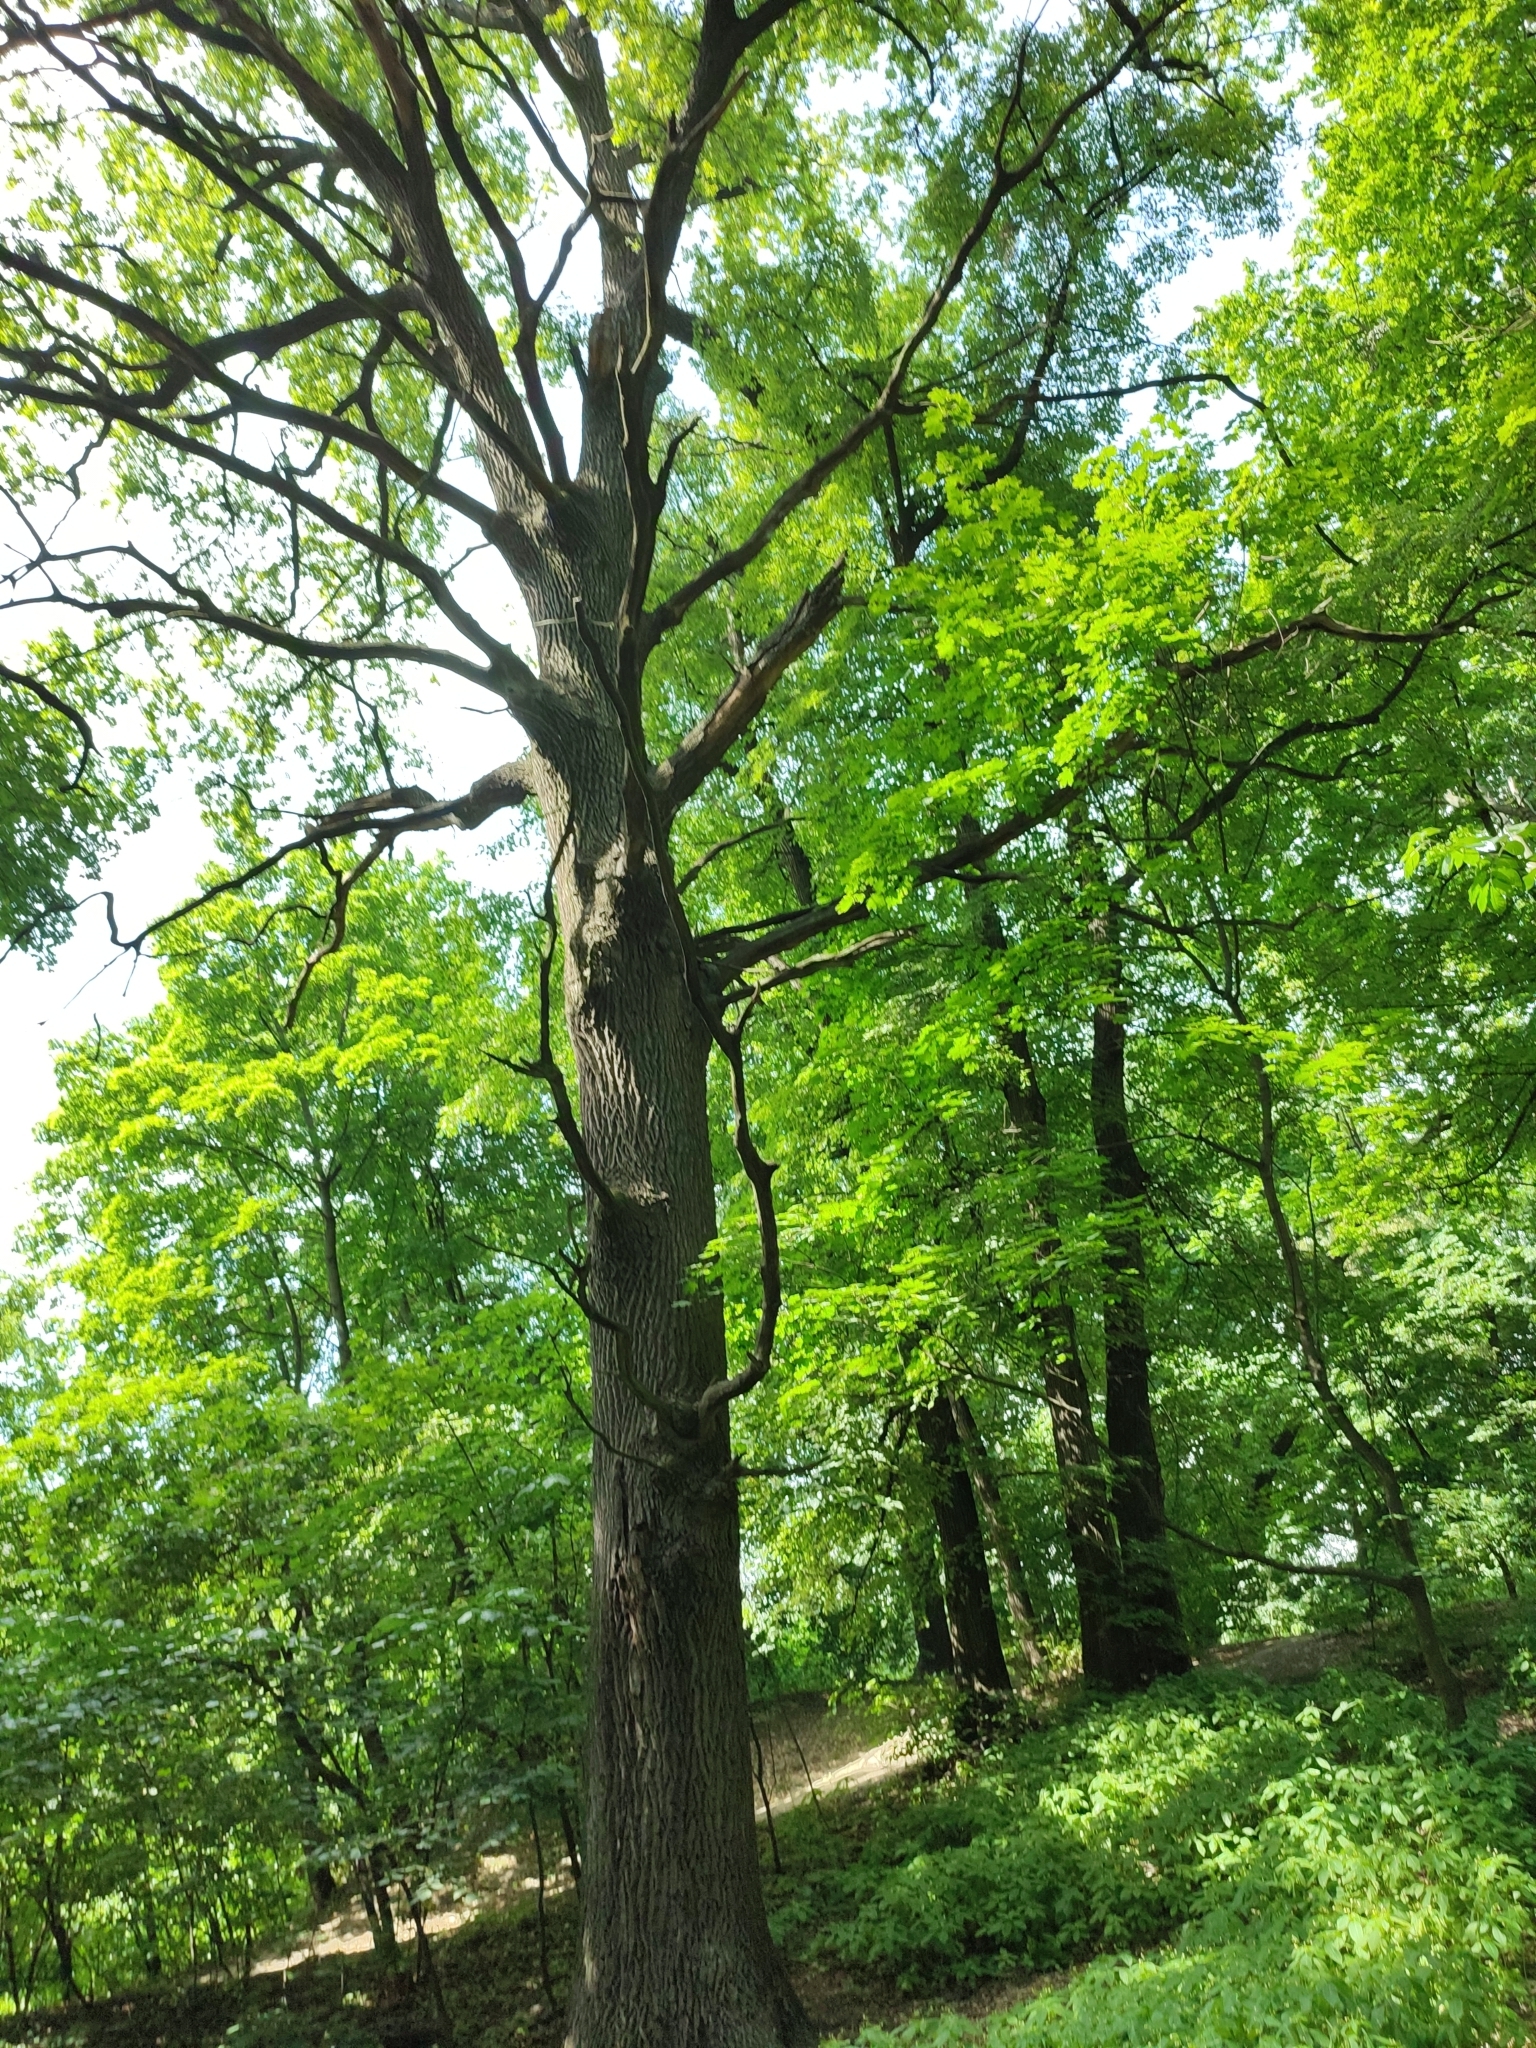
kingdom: Plantae
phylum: Tracheophyta
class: Magnoliopsida
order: Fagales
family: Fagaceae
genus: Quercus
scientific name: Quercus robur
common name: Pedunculate oak
